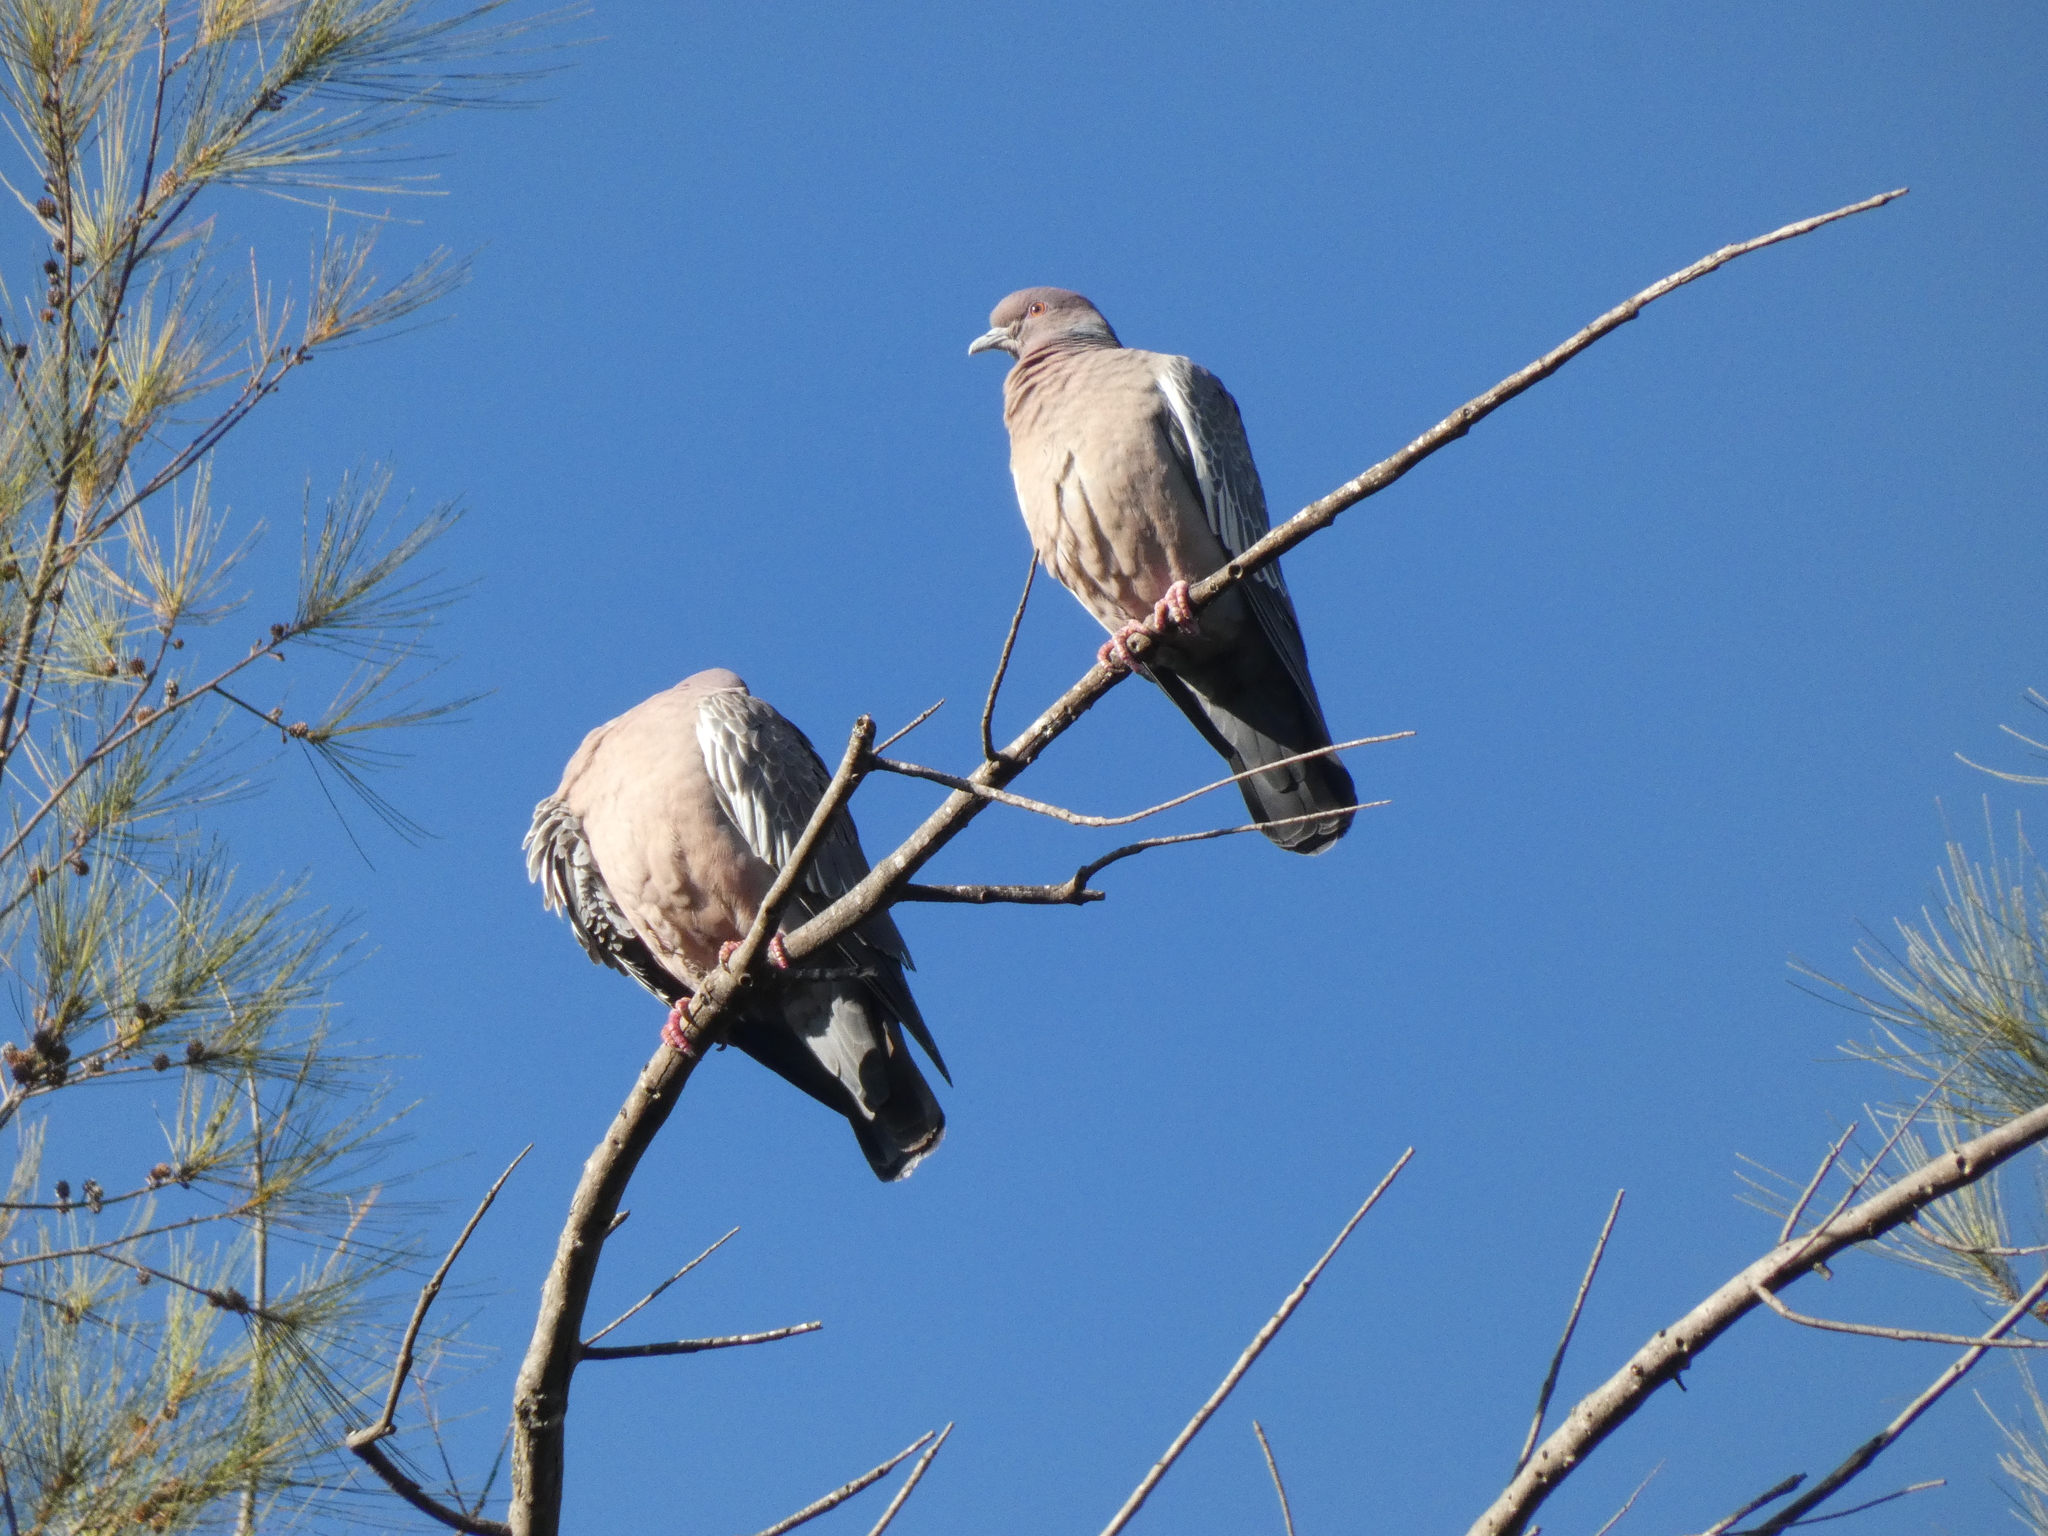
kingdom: Animalia
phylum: Chordata
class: Aves
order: Columbiformes
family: Columbidae
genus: Patagioenas
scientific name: Patagioenas picazuro
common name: Picazuro pigeon
